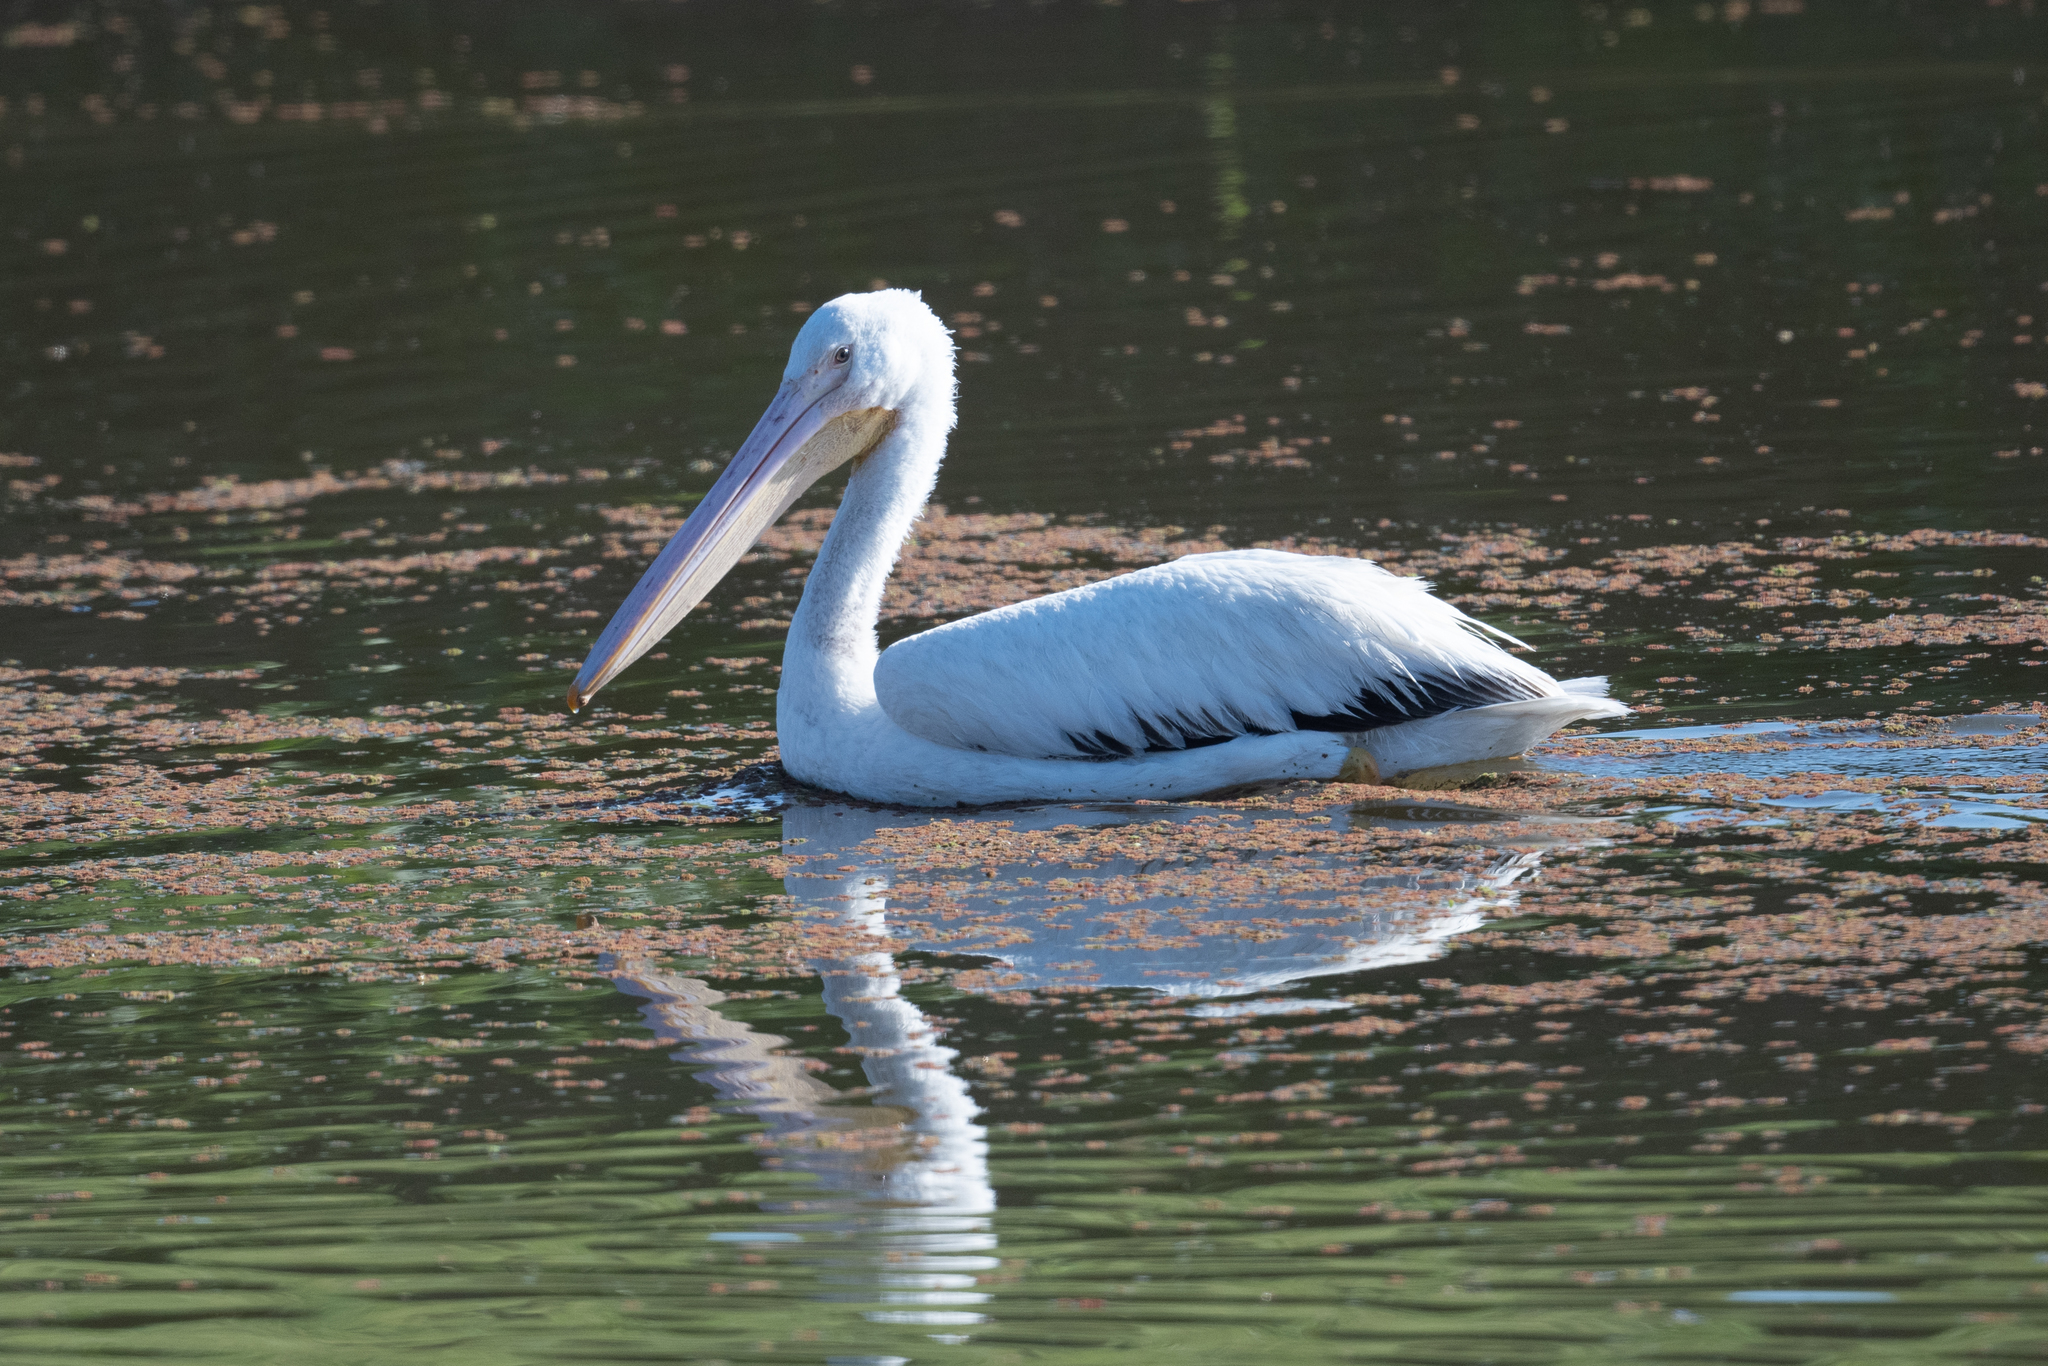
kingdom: Animalia
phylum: Chordata
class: Aves
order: Pelecaniformes
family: Pelecanidae
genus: Pelecanus
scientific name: Pelecanus erythrorhynchos
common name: American white pelican
